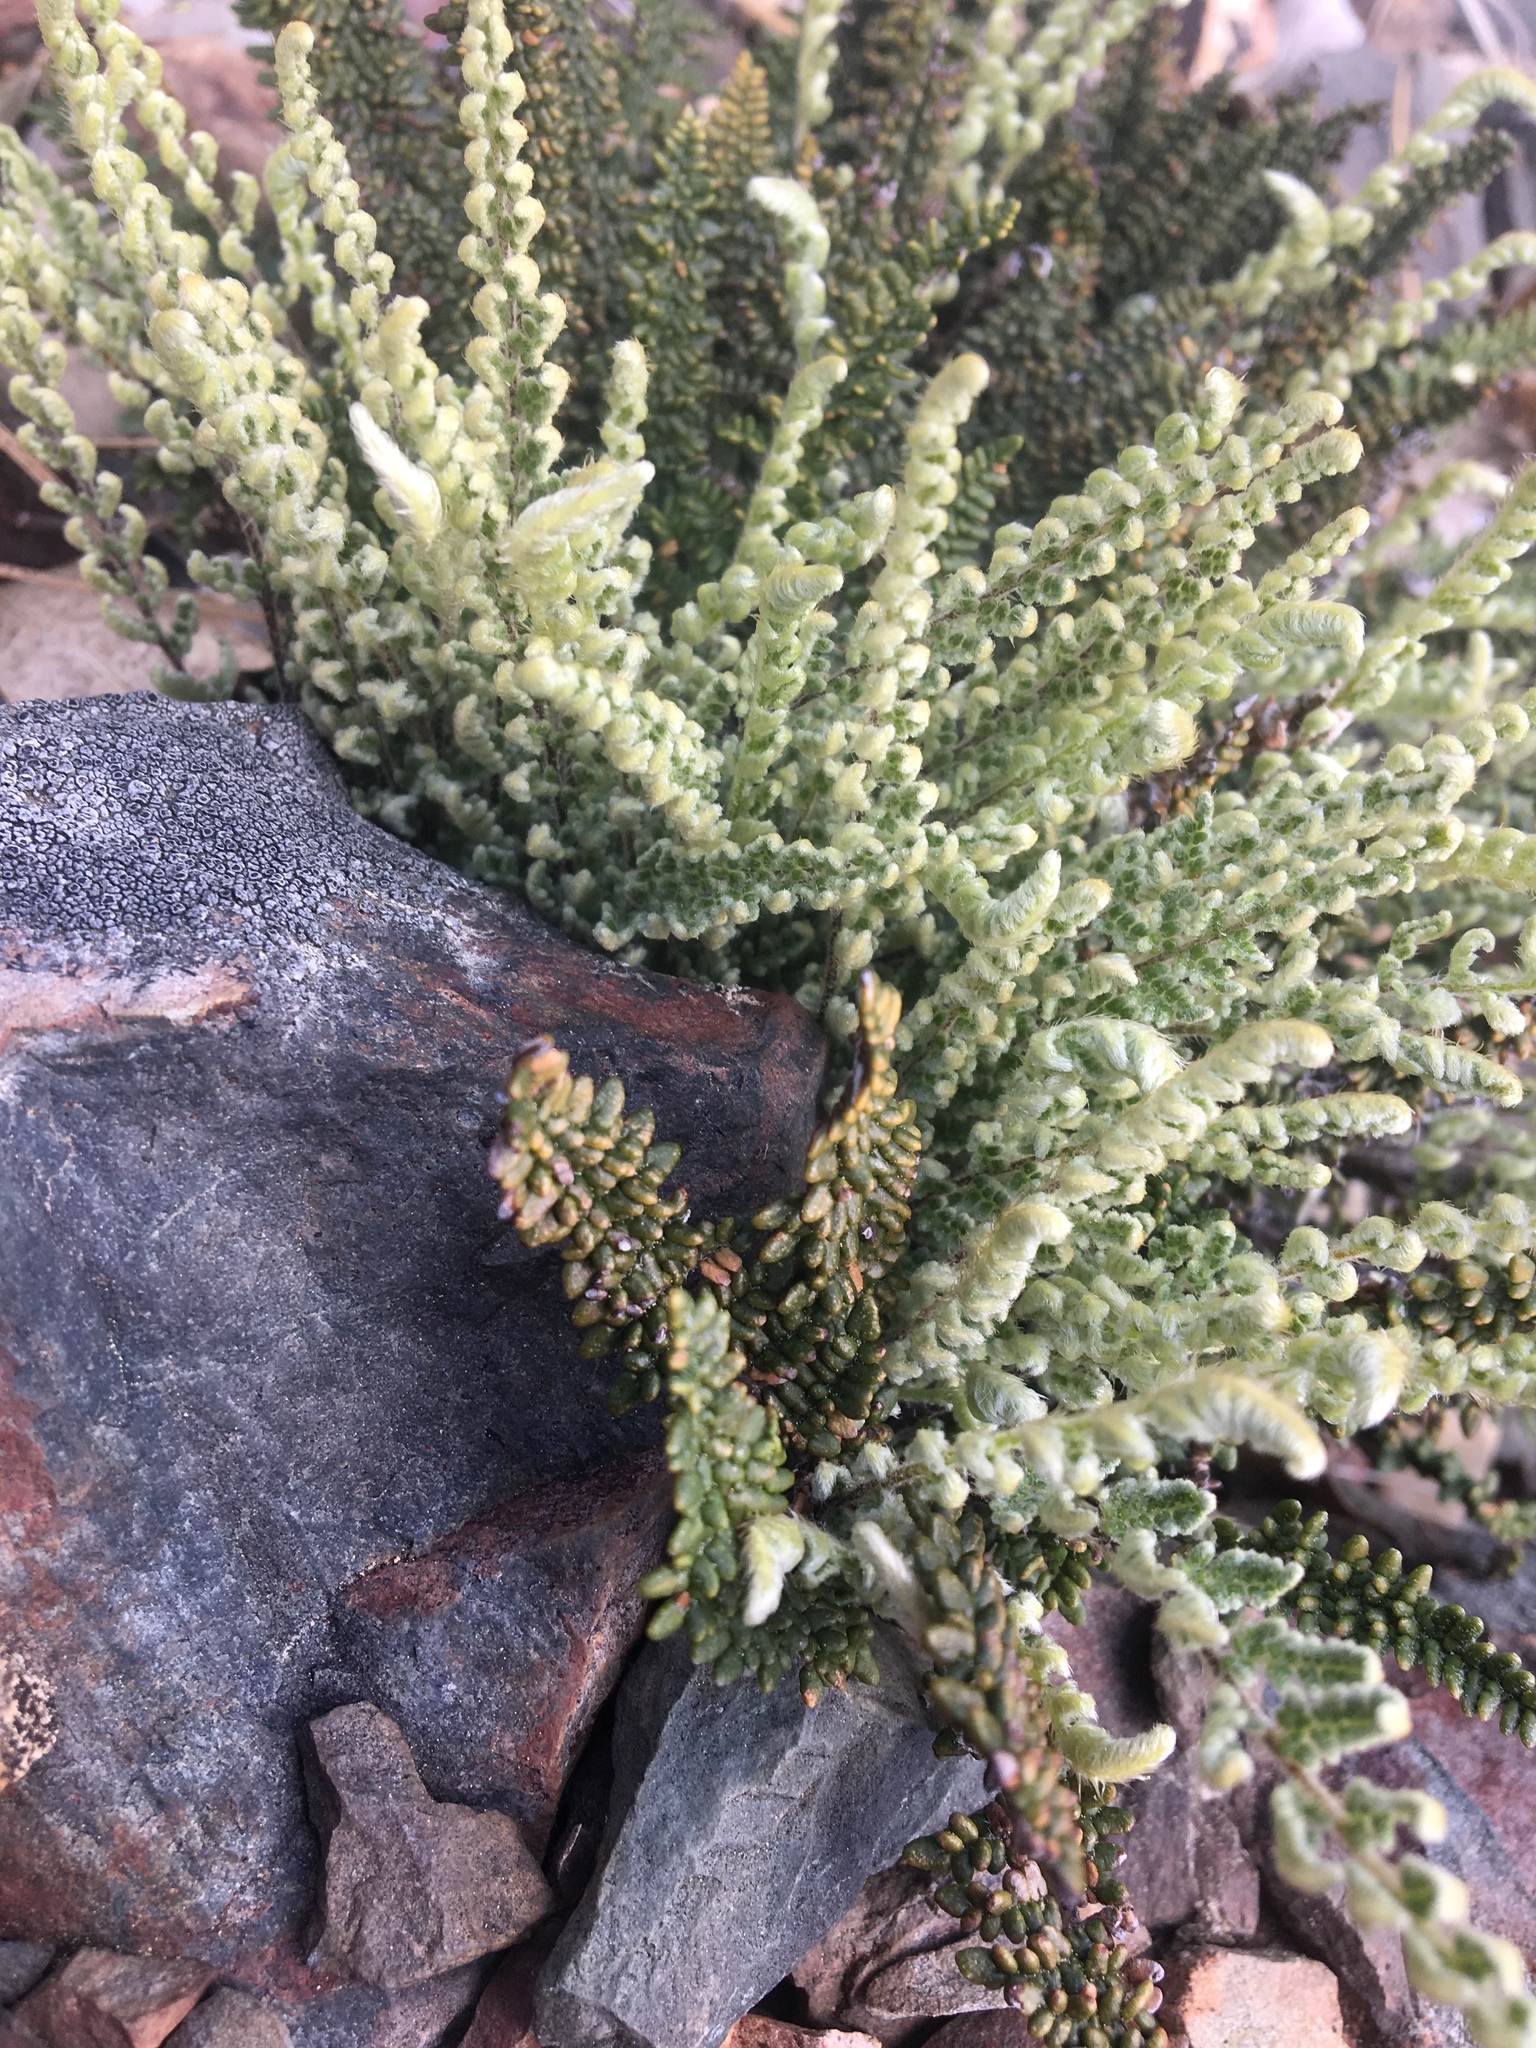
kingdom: Plantae
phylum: Tracheophyta
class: Polypodiopsida
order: Polypodiales
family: Pteridaceae
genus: Myriopteris
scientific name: Myriopteris gracillima
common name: Lace fern
